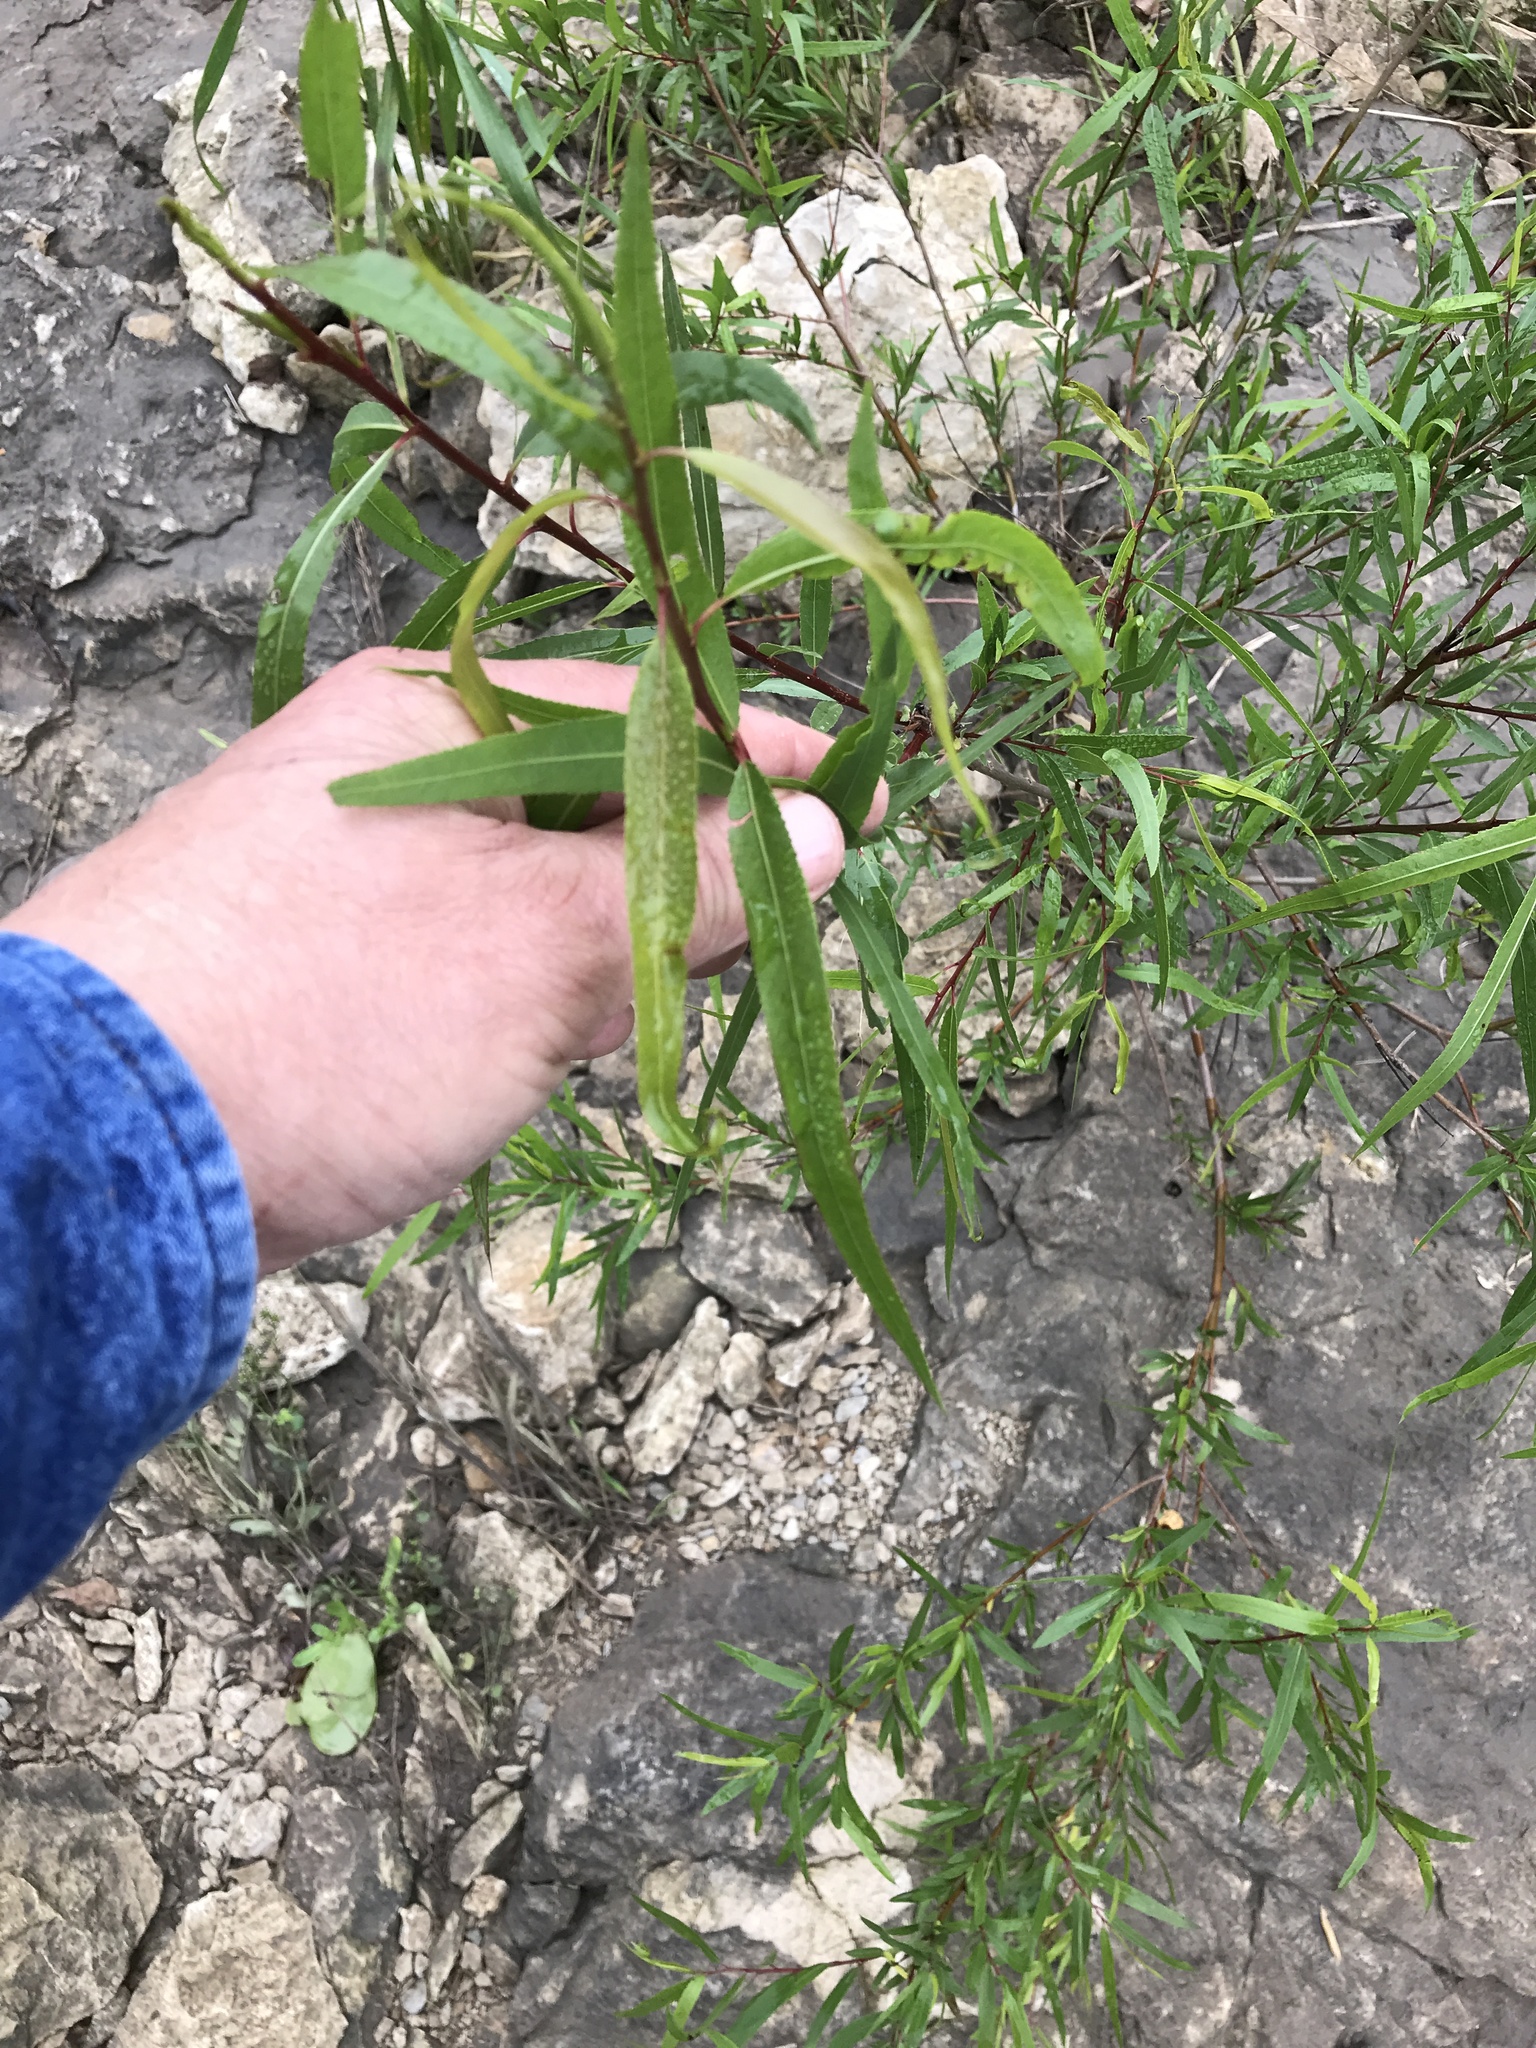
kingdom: Plantae
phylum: Tracheophyta
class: Magnoliopsida
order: Malpighiales
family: Salicaceae
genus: Salix
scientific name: Salix nigra
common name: Black willow
